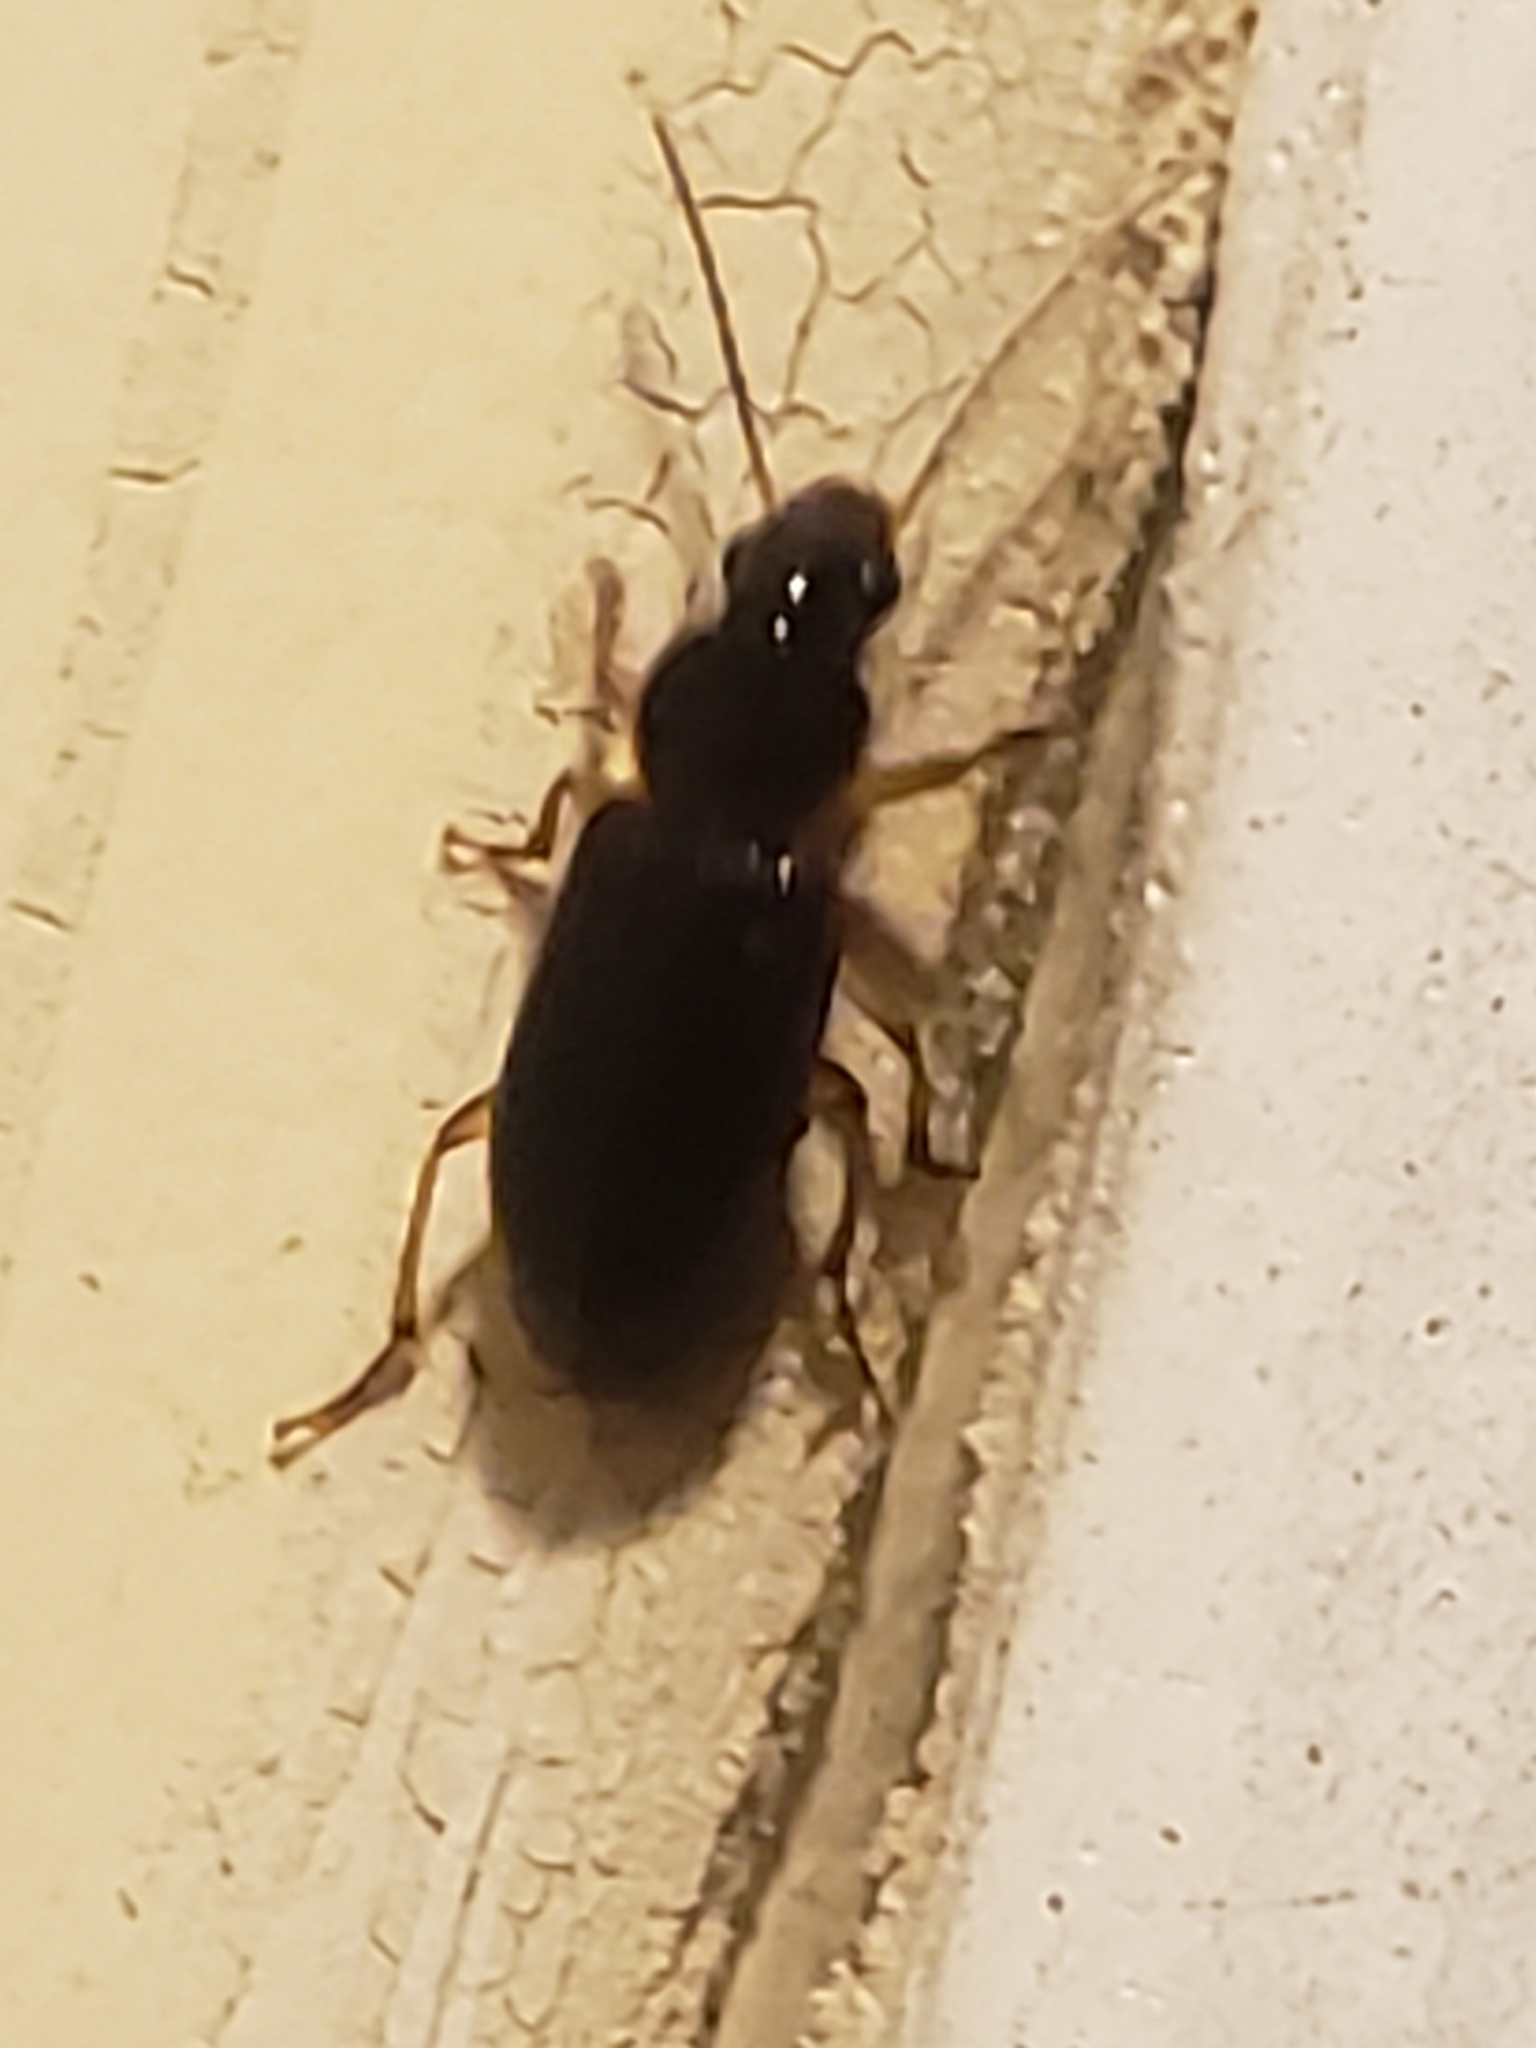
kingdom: Animalia
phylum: Arthropoda
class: Insecta
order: Coleoptera
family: Carabidae
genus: Stenolophus
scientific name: Stenolophus ochropezus
